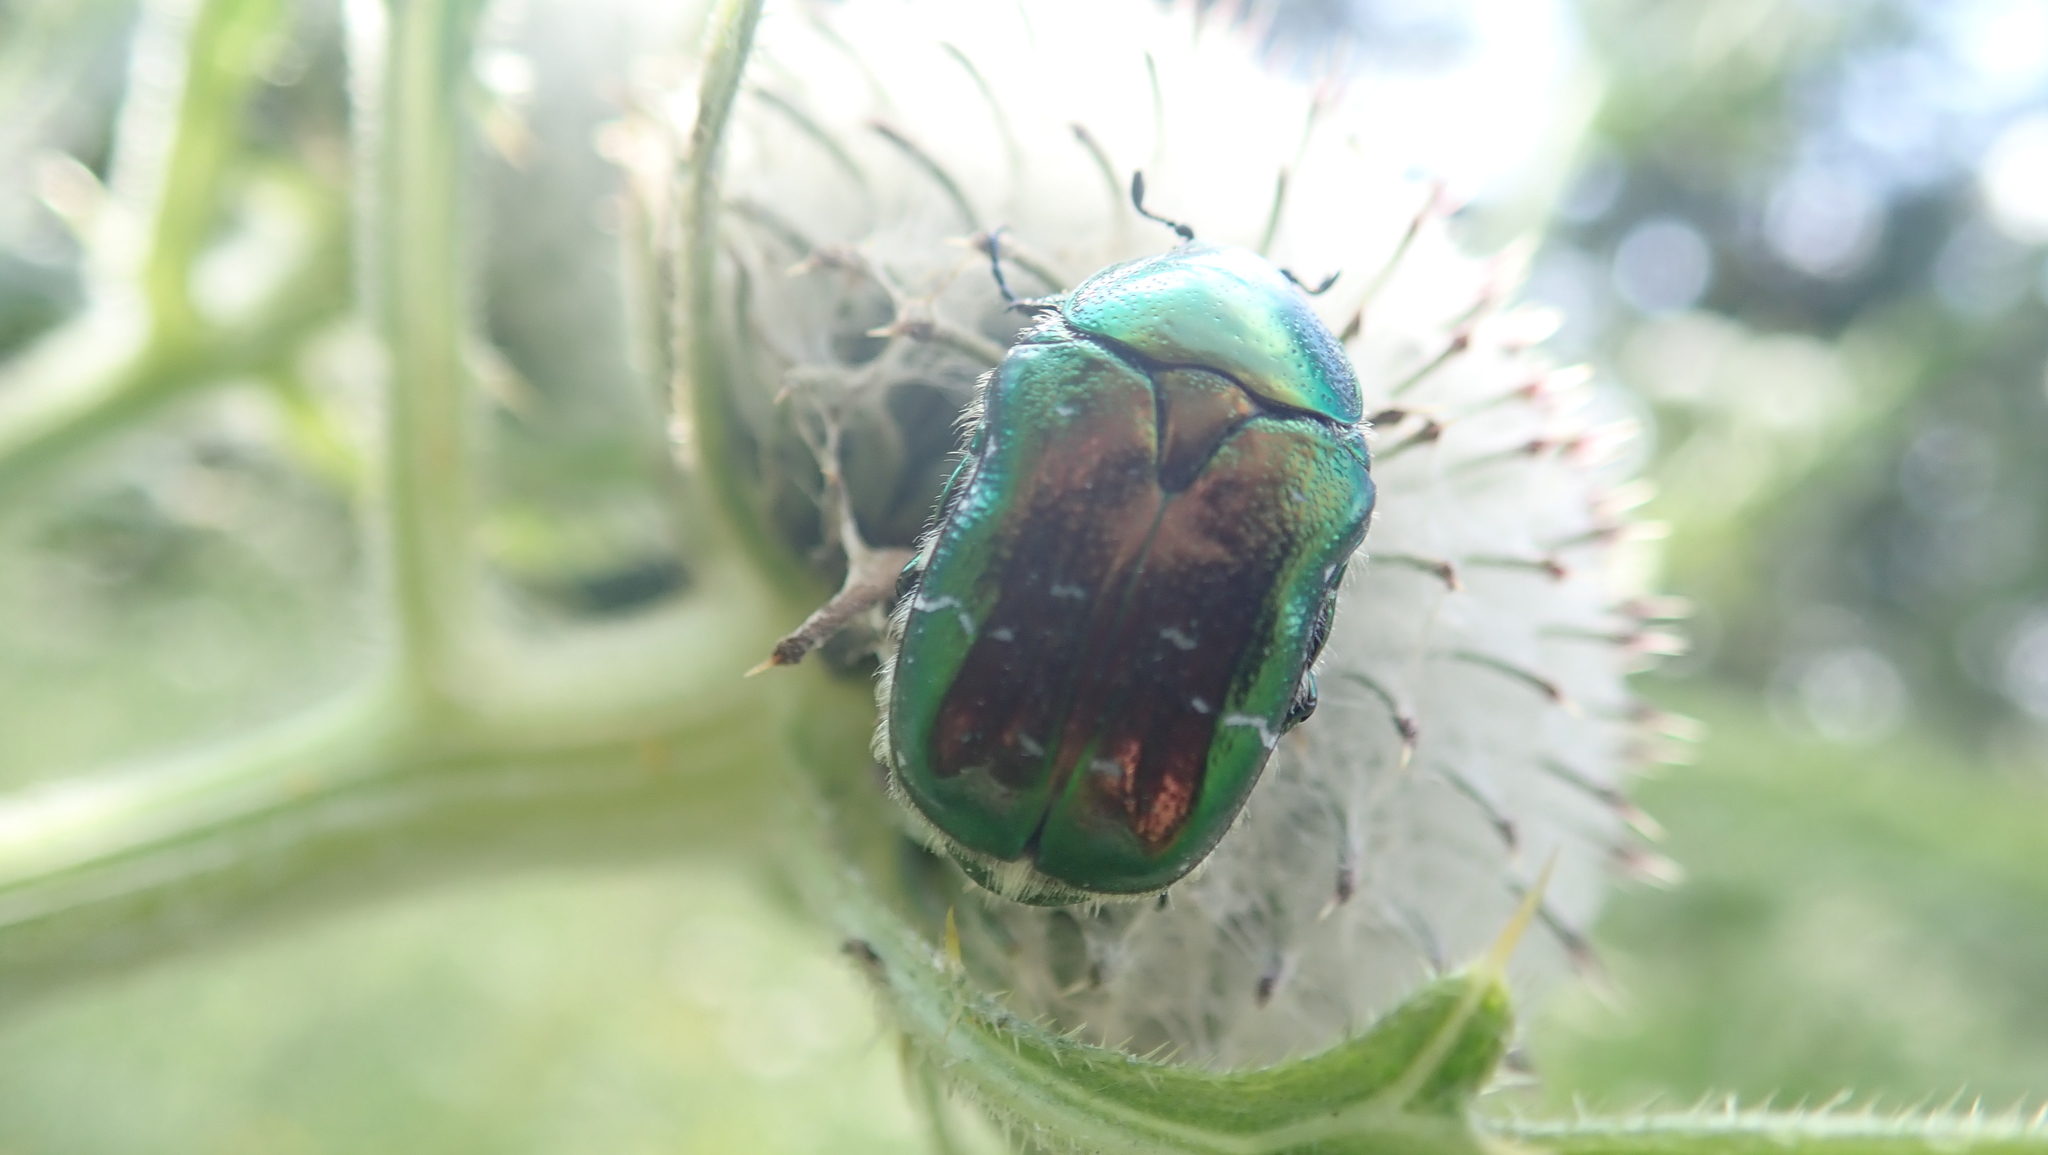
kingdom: Animalia
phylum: Arthropoda
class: Insecta
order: Coleoptera
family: Scarabaeidae
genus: Cetonia
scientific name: Cetonia aurata
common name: Rose chafer
